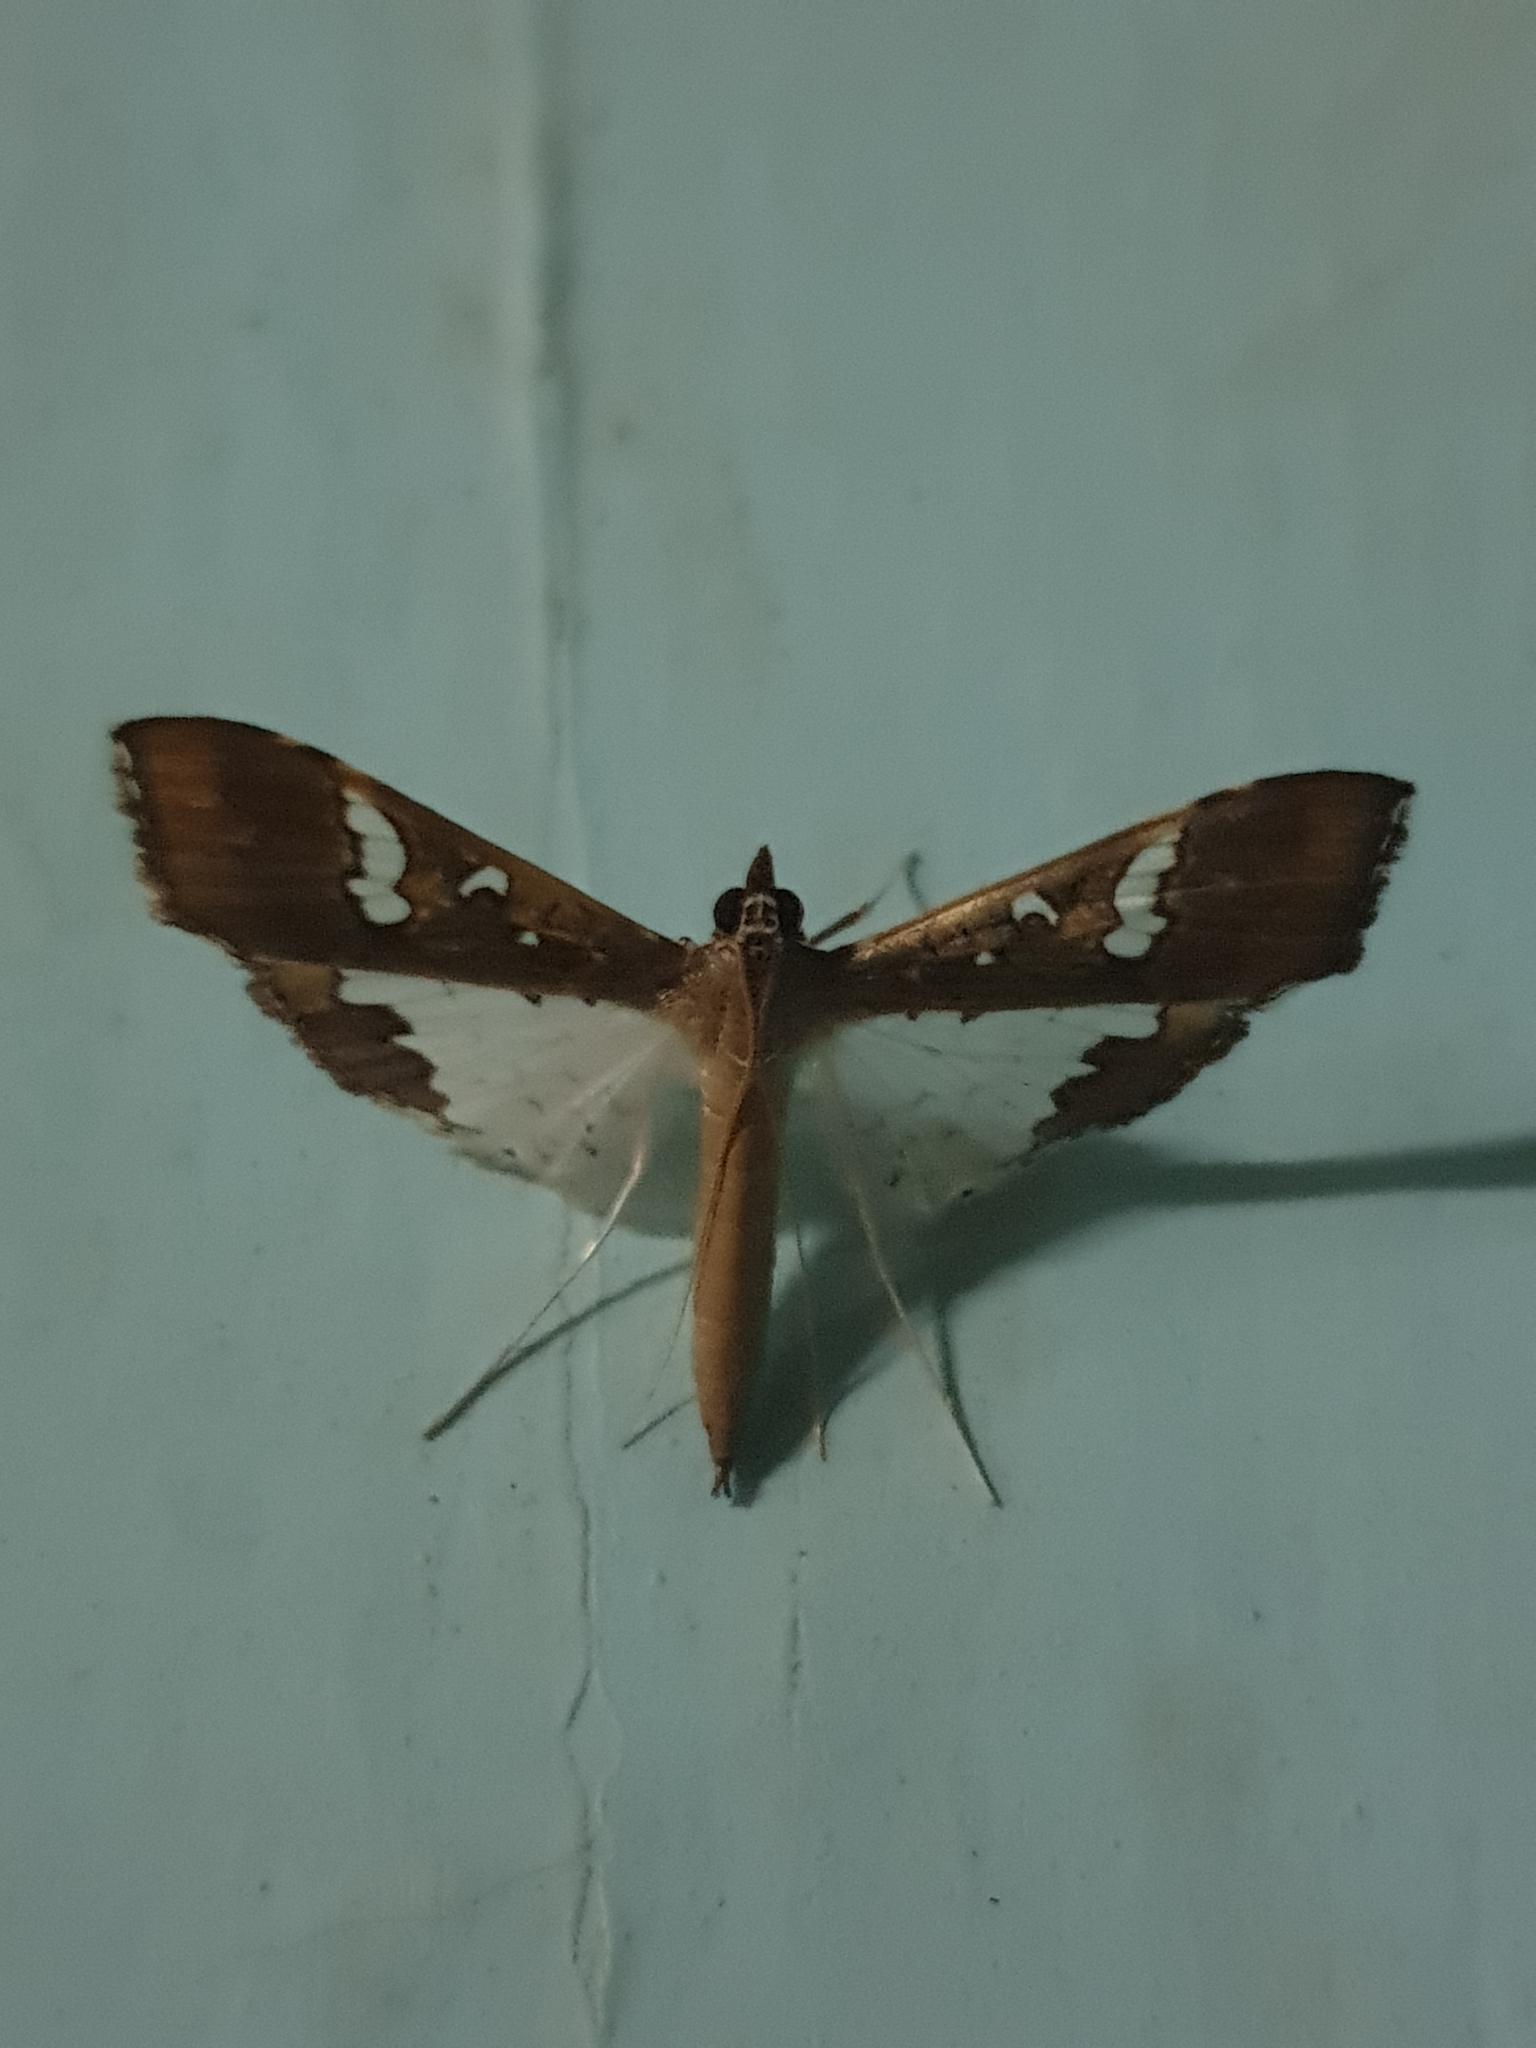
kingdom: Animalia
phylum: Arthropoda
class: Insecta
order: Lepidoptera
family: Crambidae
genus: Maruca
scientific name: Maruca vitrata
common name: Maruca pod borer
